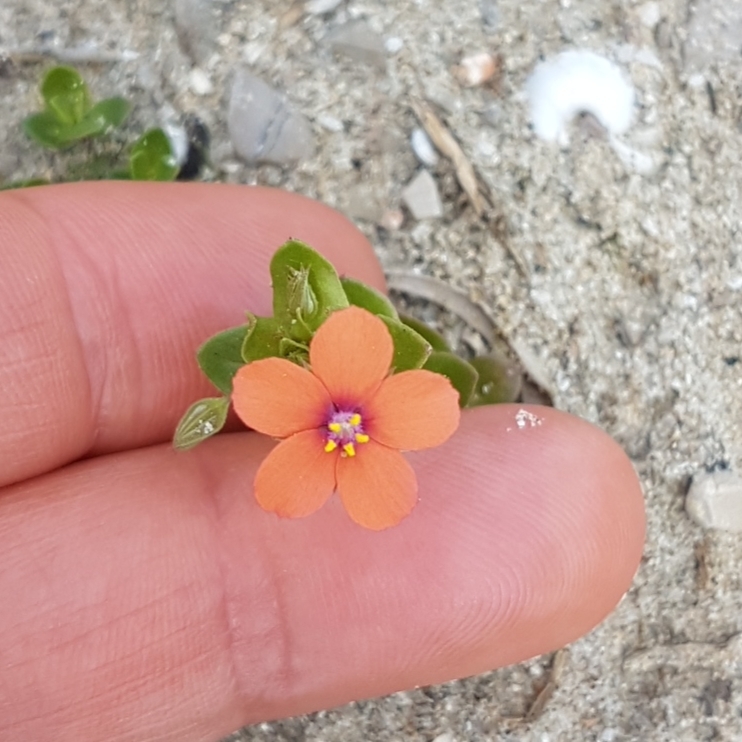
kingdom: Plantae
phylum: Tracheophyta
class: Magnoliopsida
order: Ericales
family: Primulaceae
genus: Lysimachia
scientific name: Lysimachia arvensis
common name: Scarlet pimpernel
